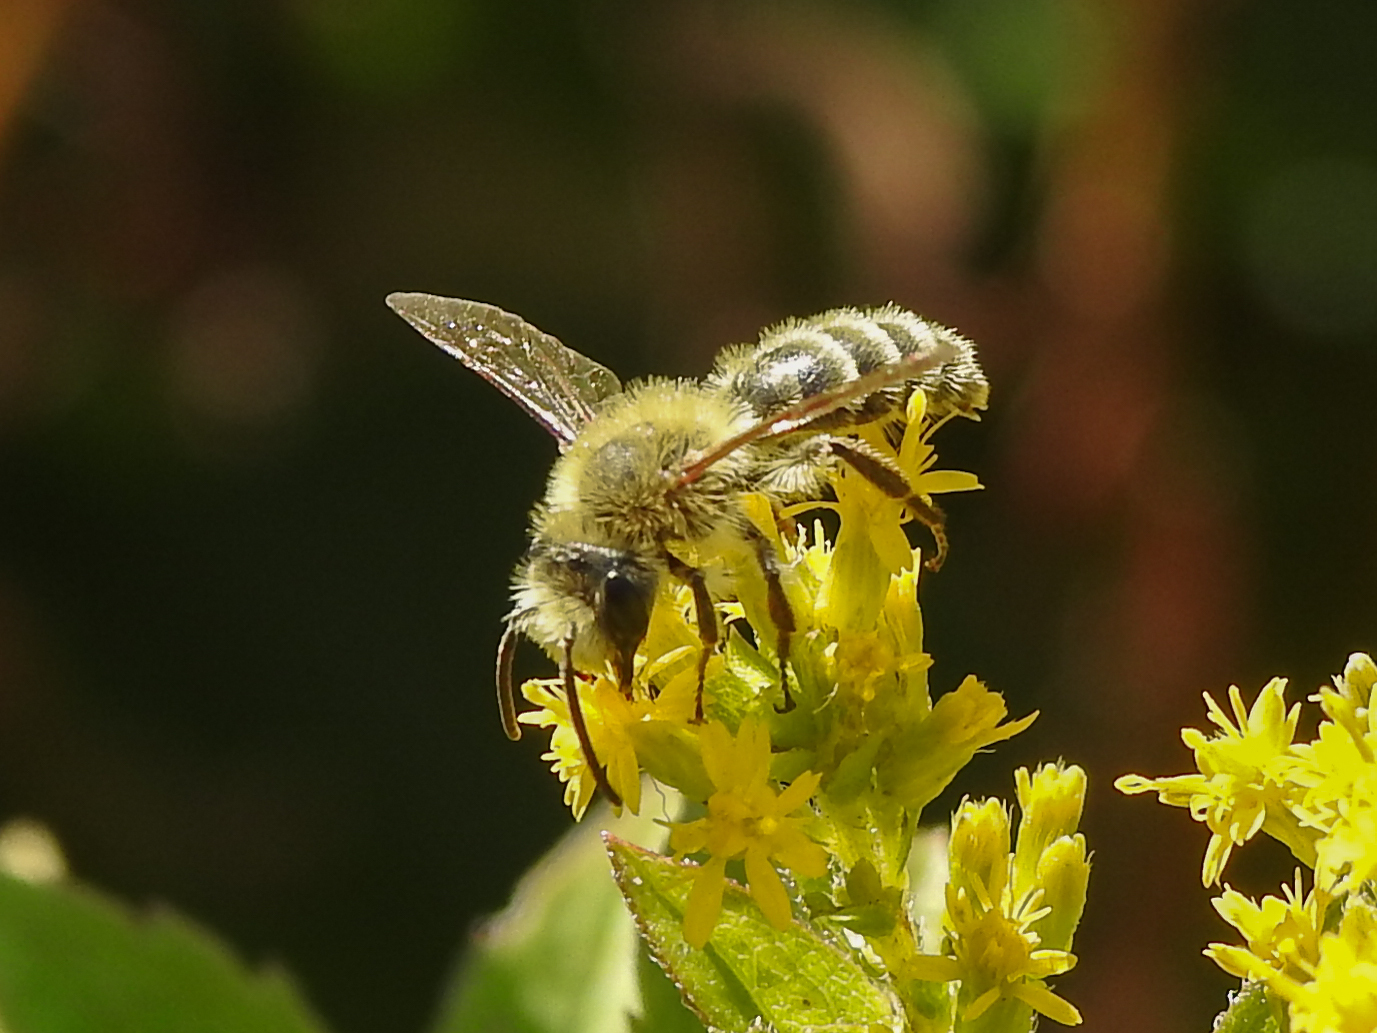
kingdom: Animalia
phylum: Arthropoda
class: Insecta
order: Hymenoptera
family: Andrenidae
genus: Andrena
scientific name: Andrena hirticincta
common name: Hairy-banded mining bee
